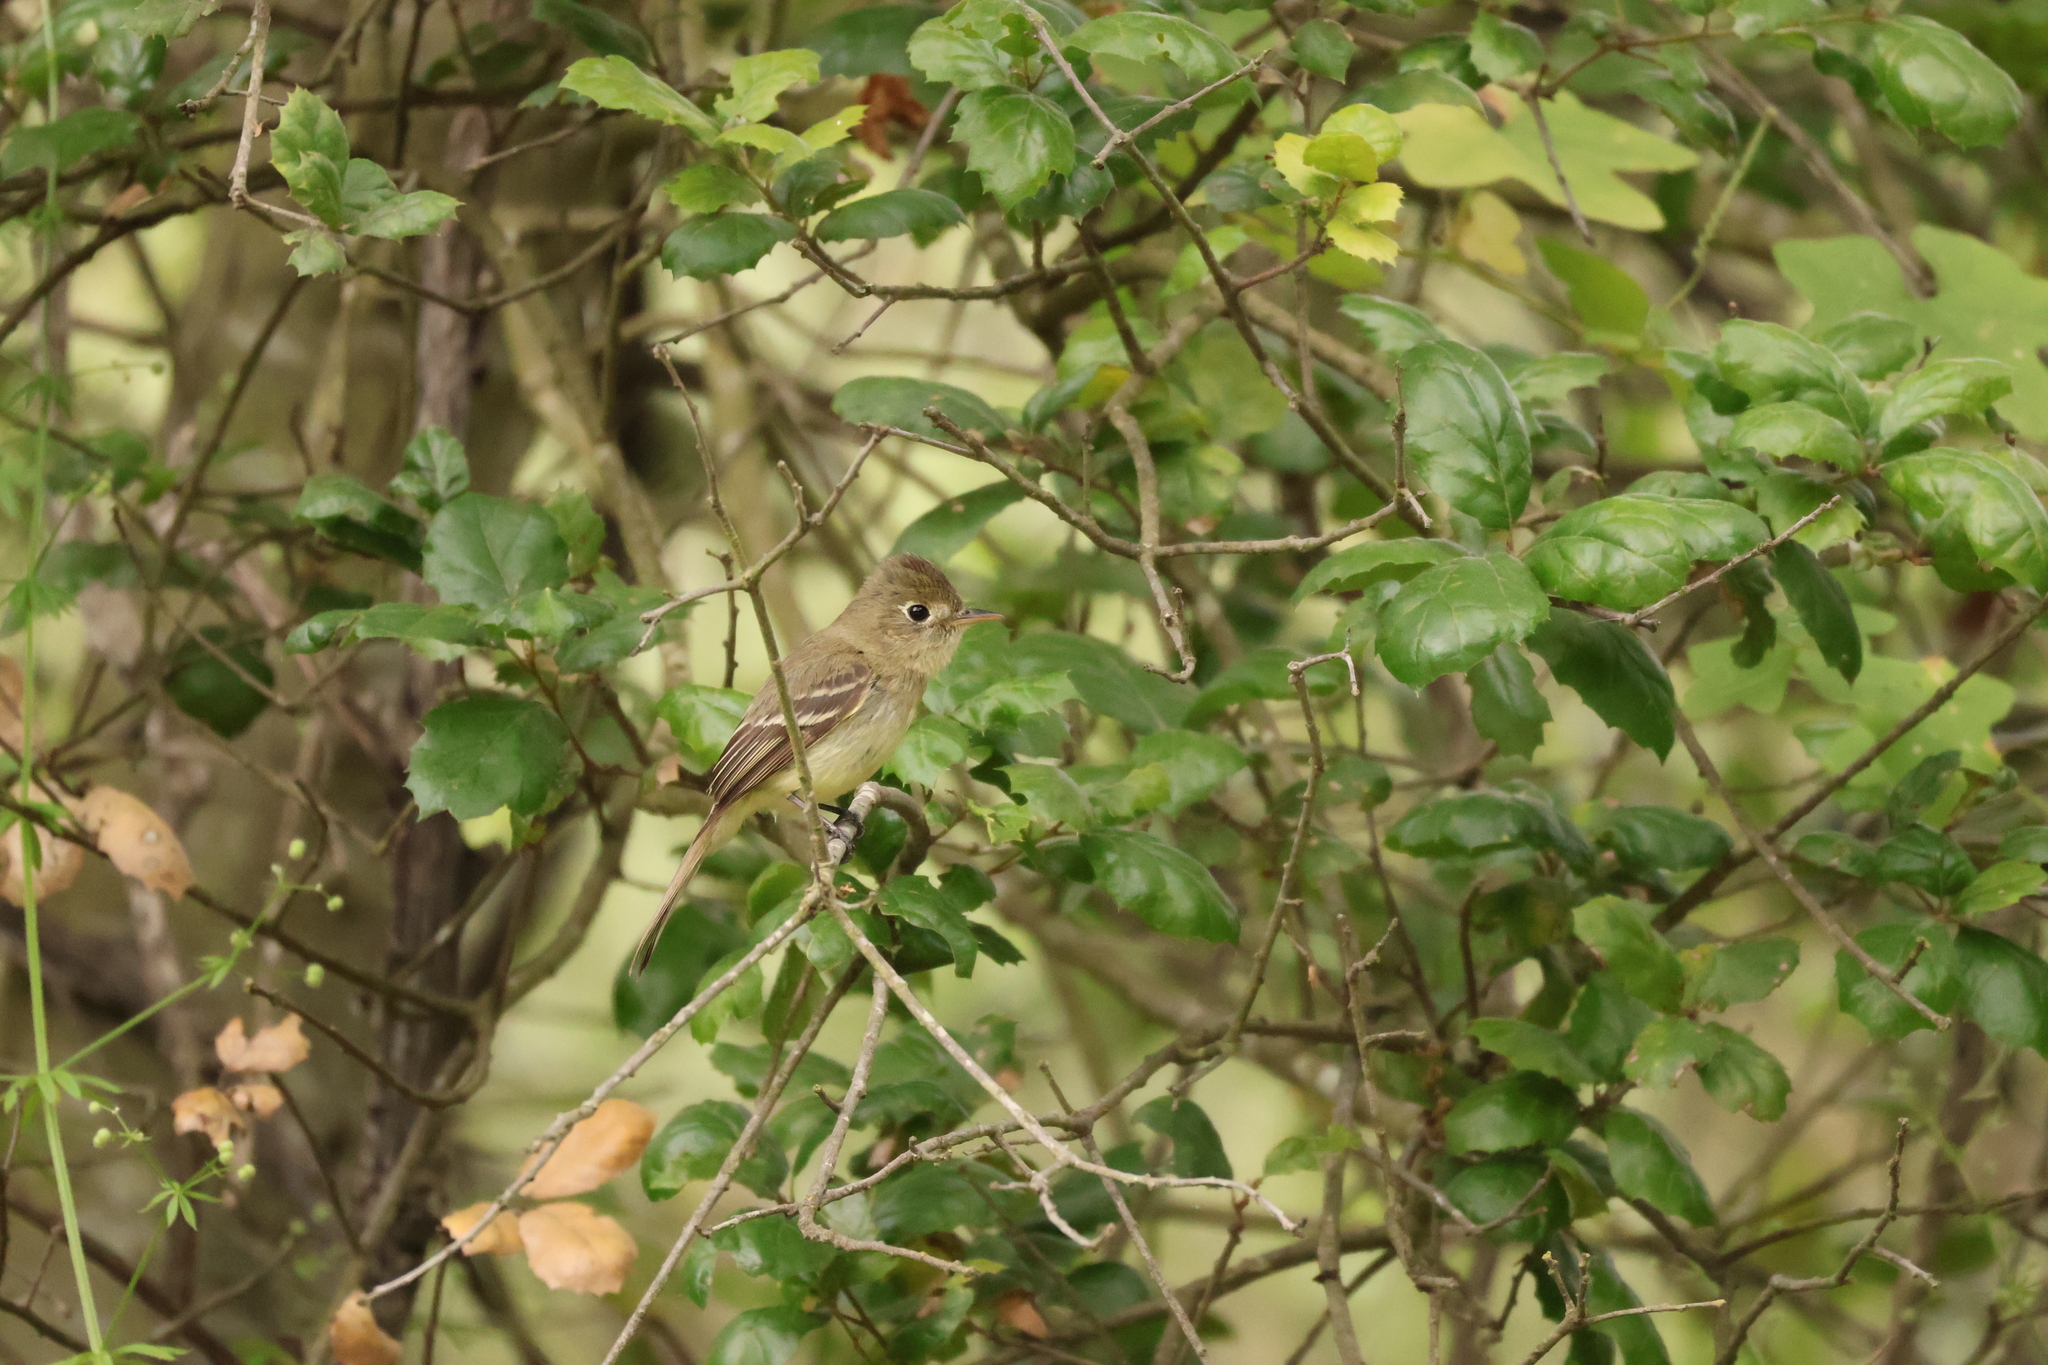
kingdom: Animalia
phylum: Chordata
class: Aves
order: Passeriformes
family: Tyrannidae
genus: Empidonax
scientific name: Empidonax difficilis
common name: Pacific-slope flycatcher
